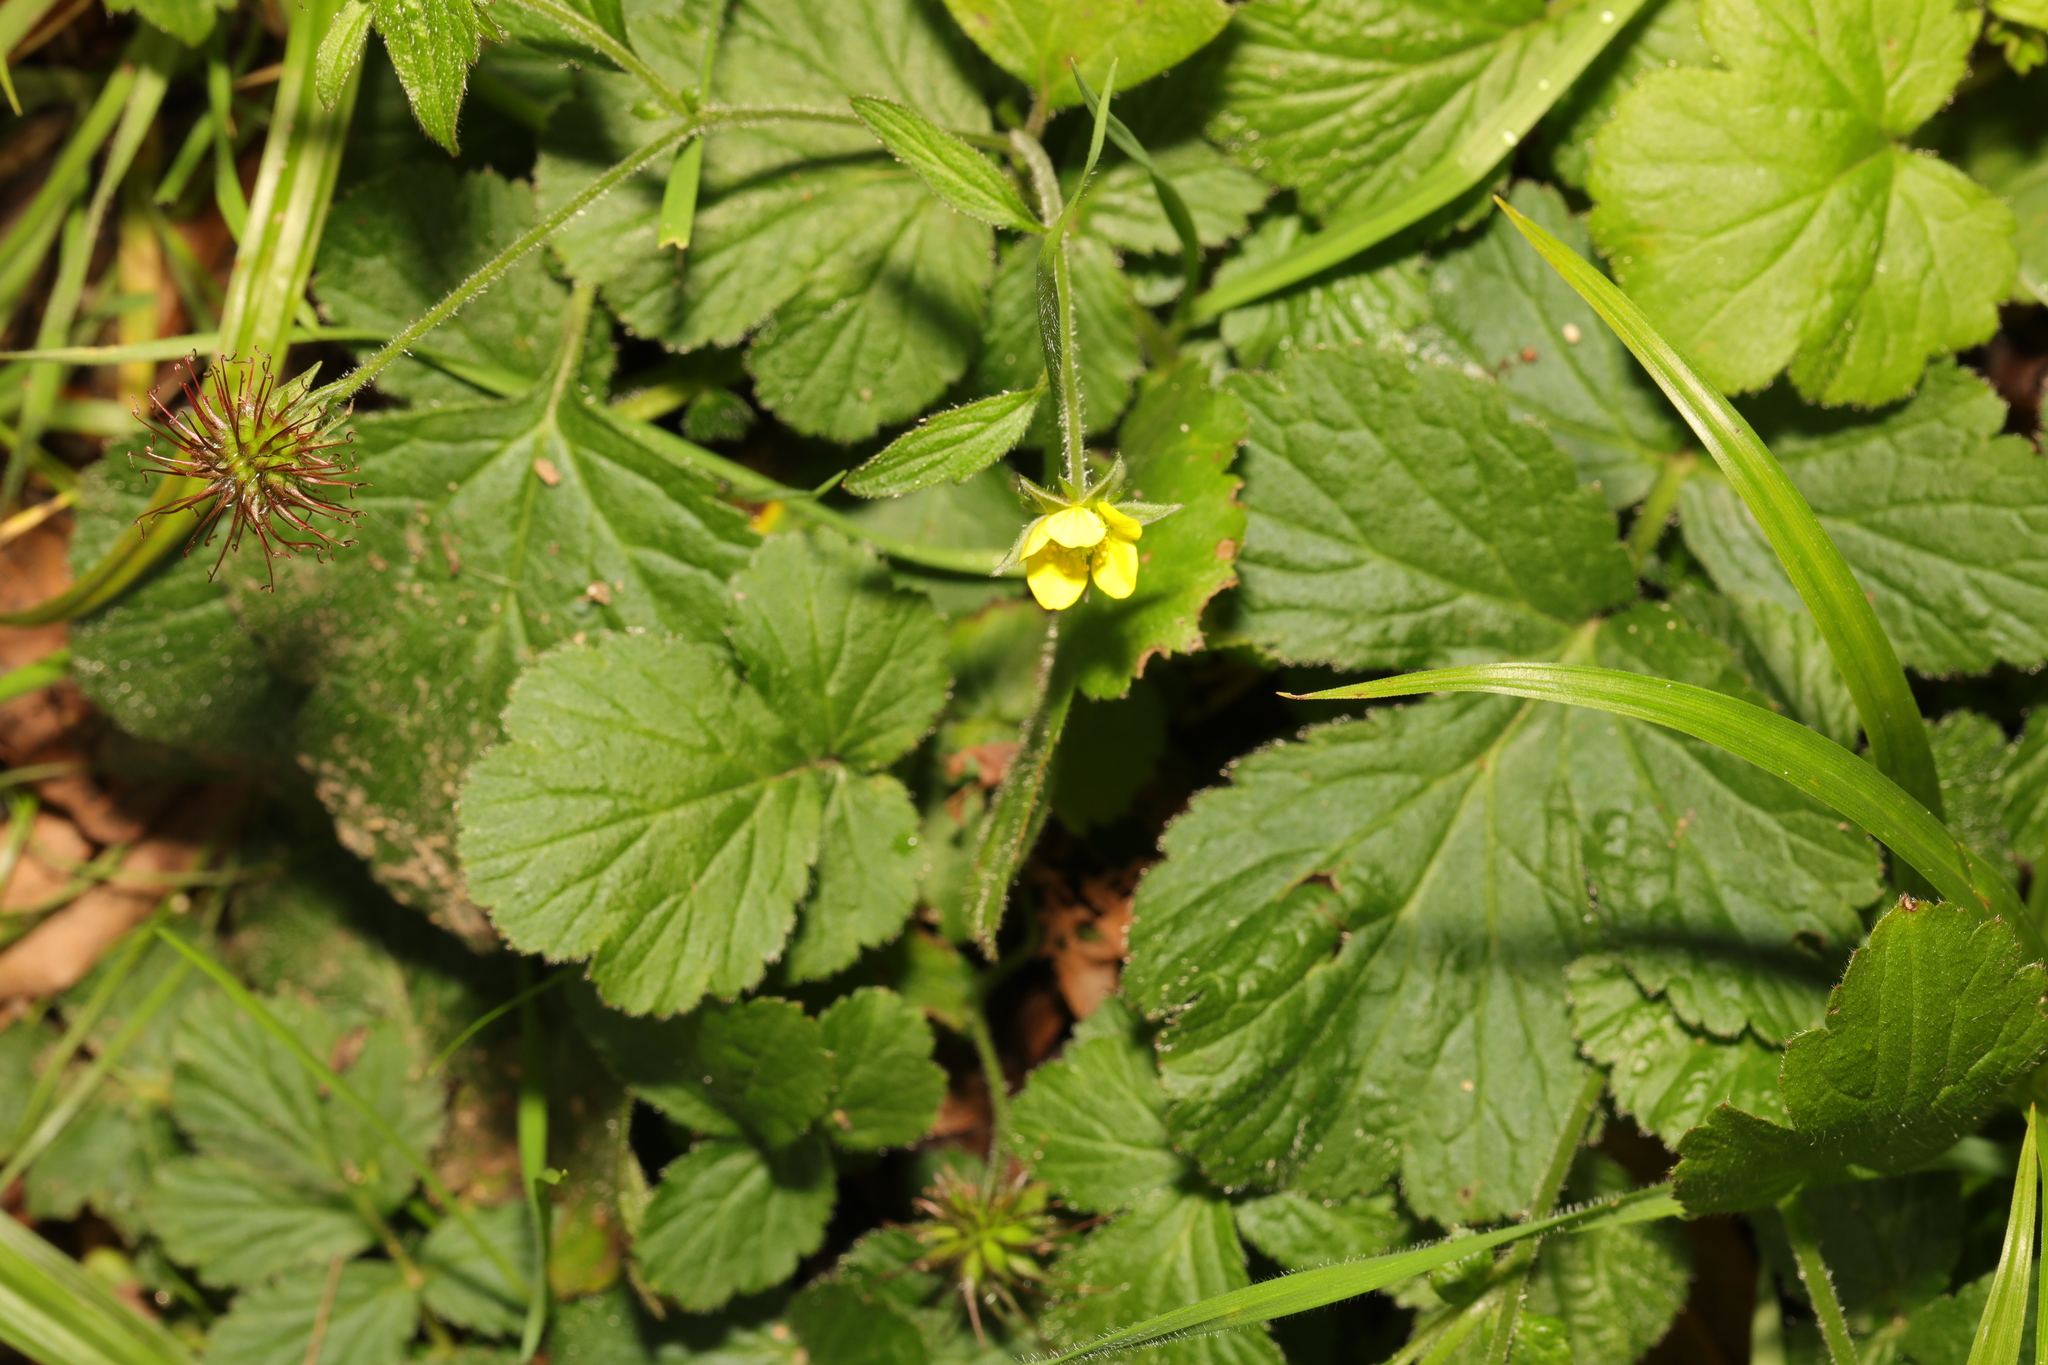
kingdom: Plantae
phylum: Tracheophyta
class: Magnoliopsida
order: Rosales
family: Rosaceae
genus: Geum
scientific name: Geum urbanum
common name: Wood avens
